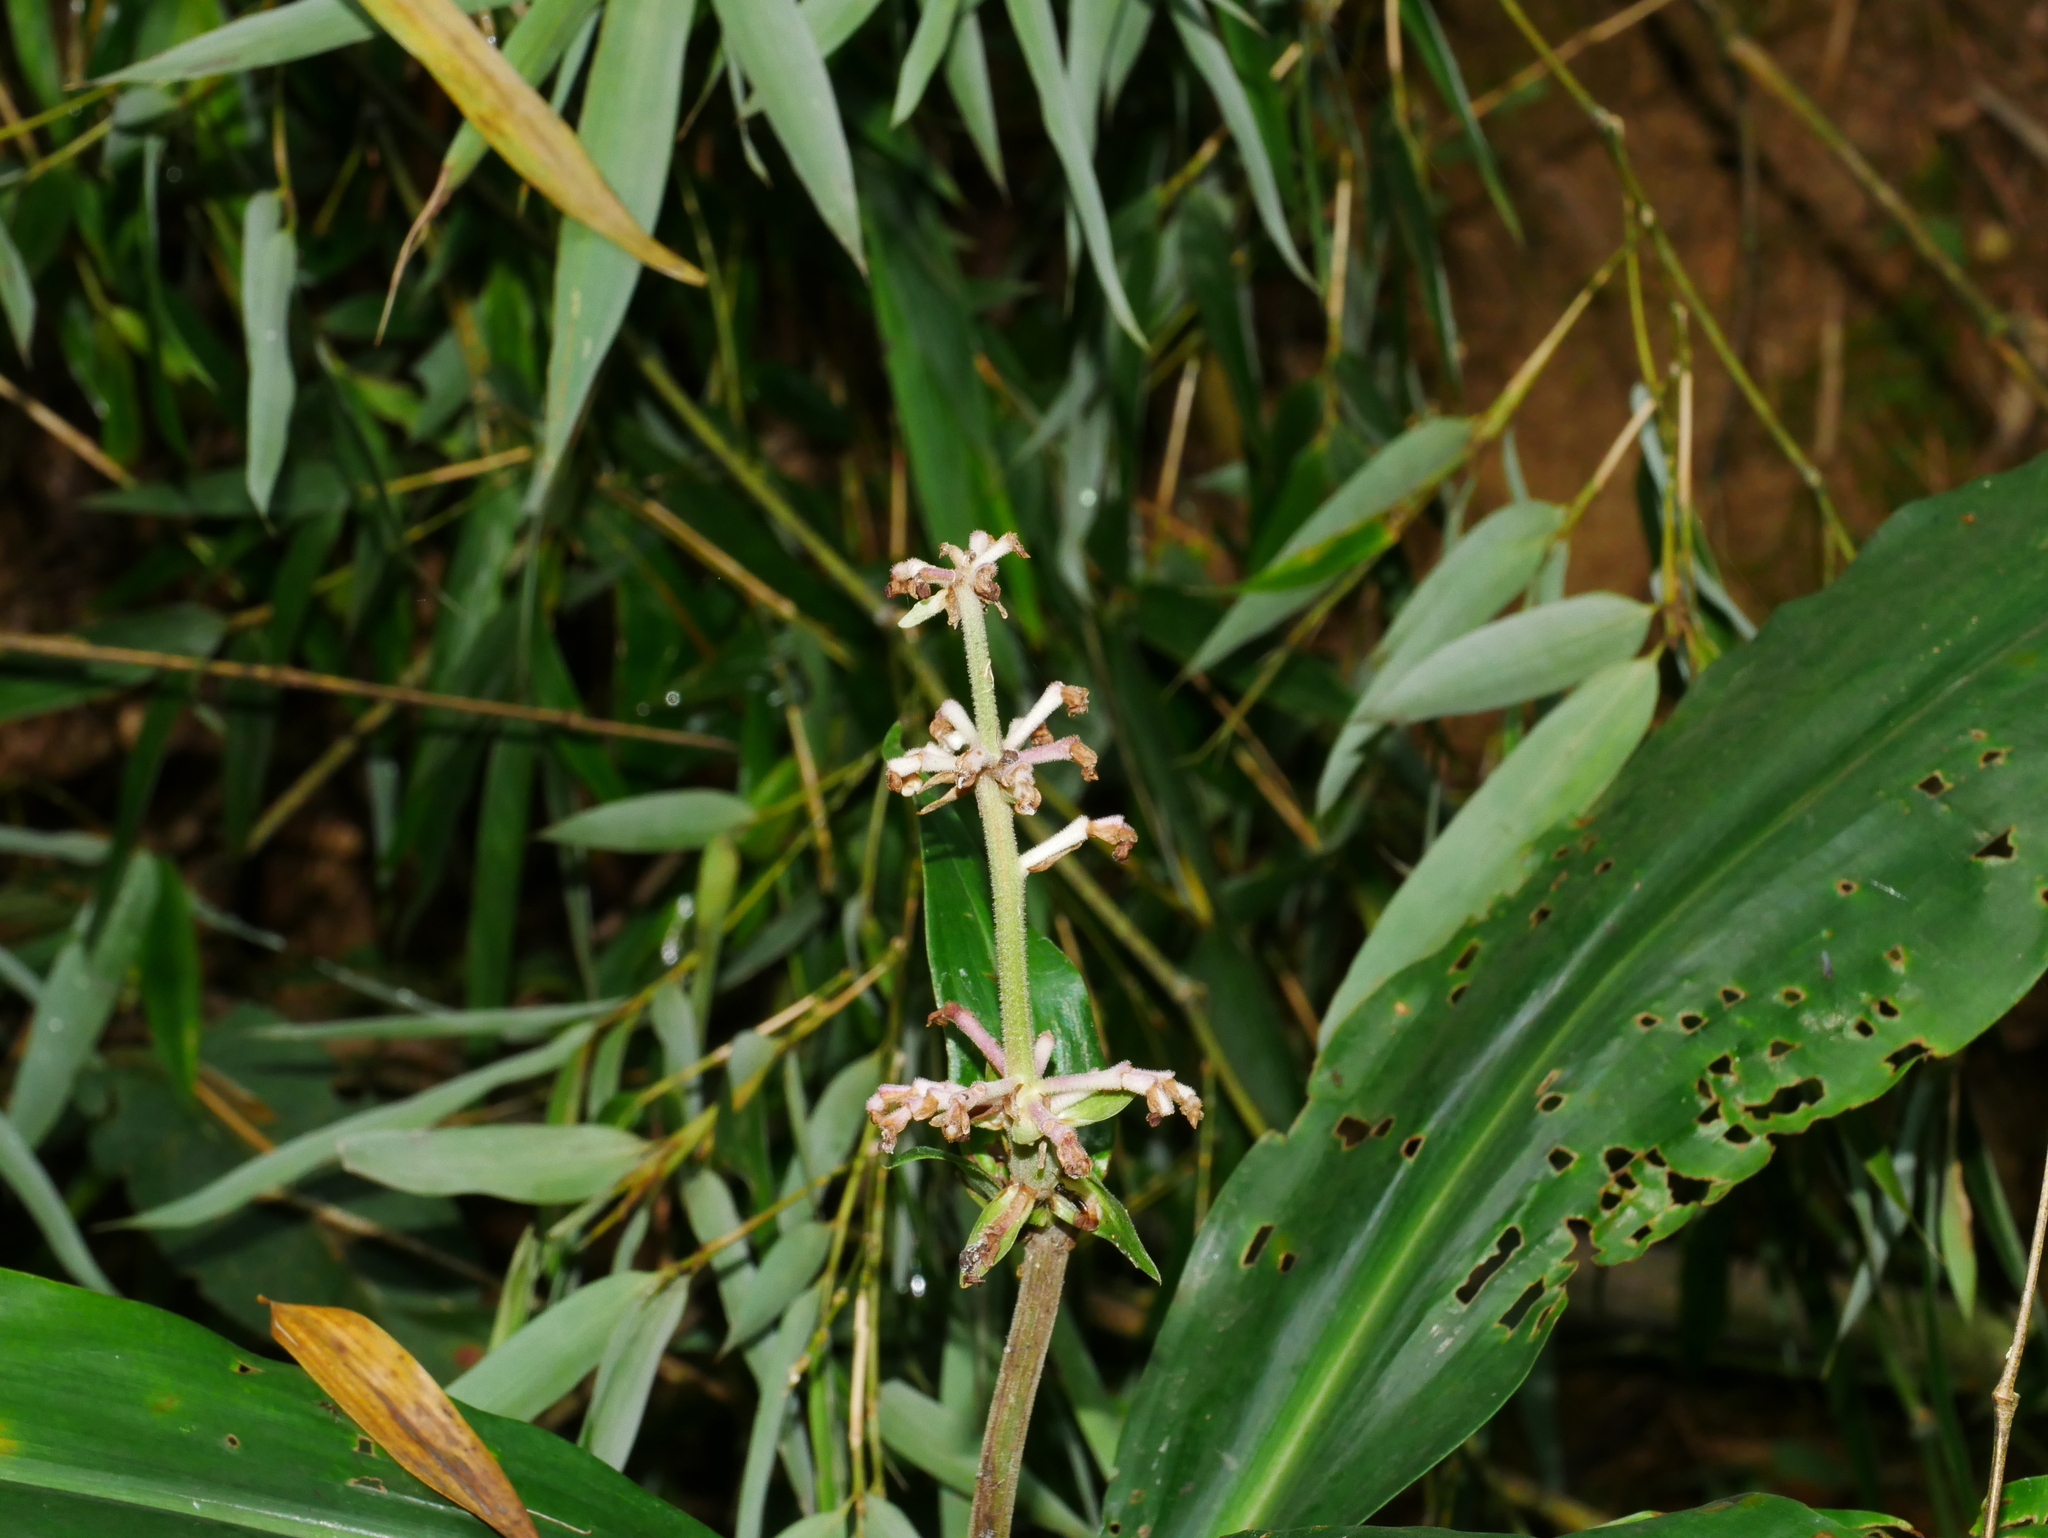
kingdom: Plantae
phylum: Tracheophyta
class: Liliopsida
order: Commelinales
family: Commelinaceae
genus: Pollia
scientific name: Pollia japonica
